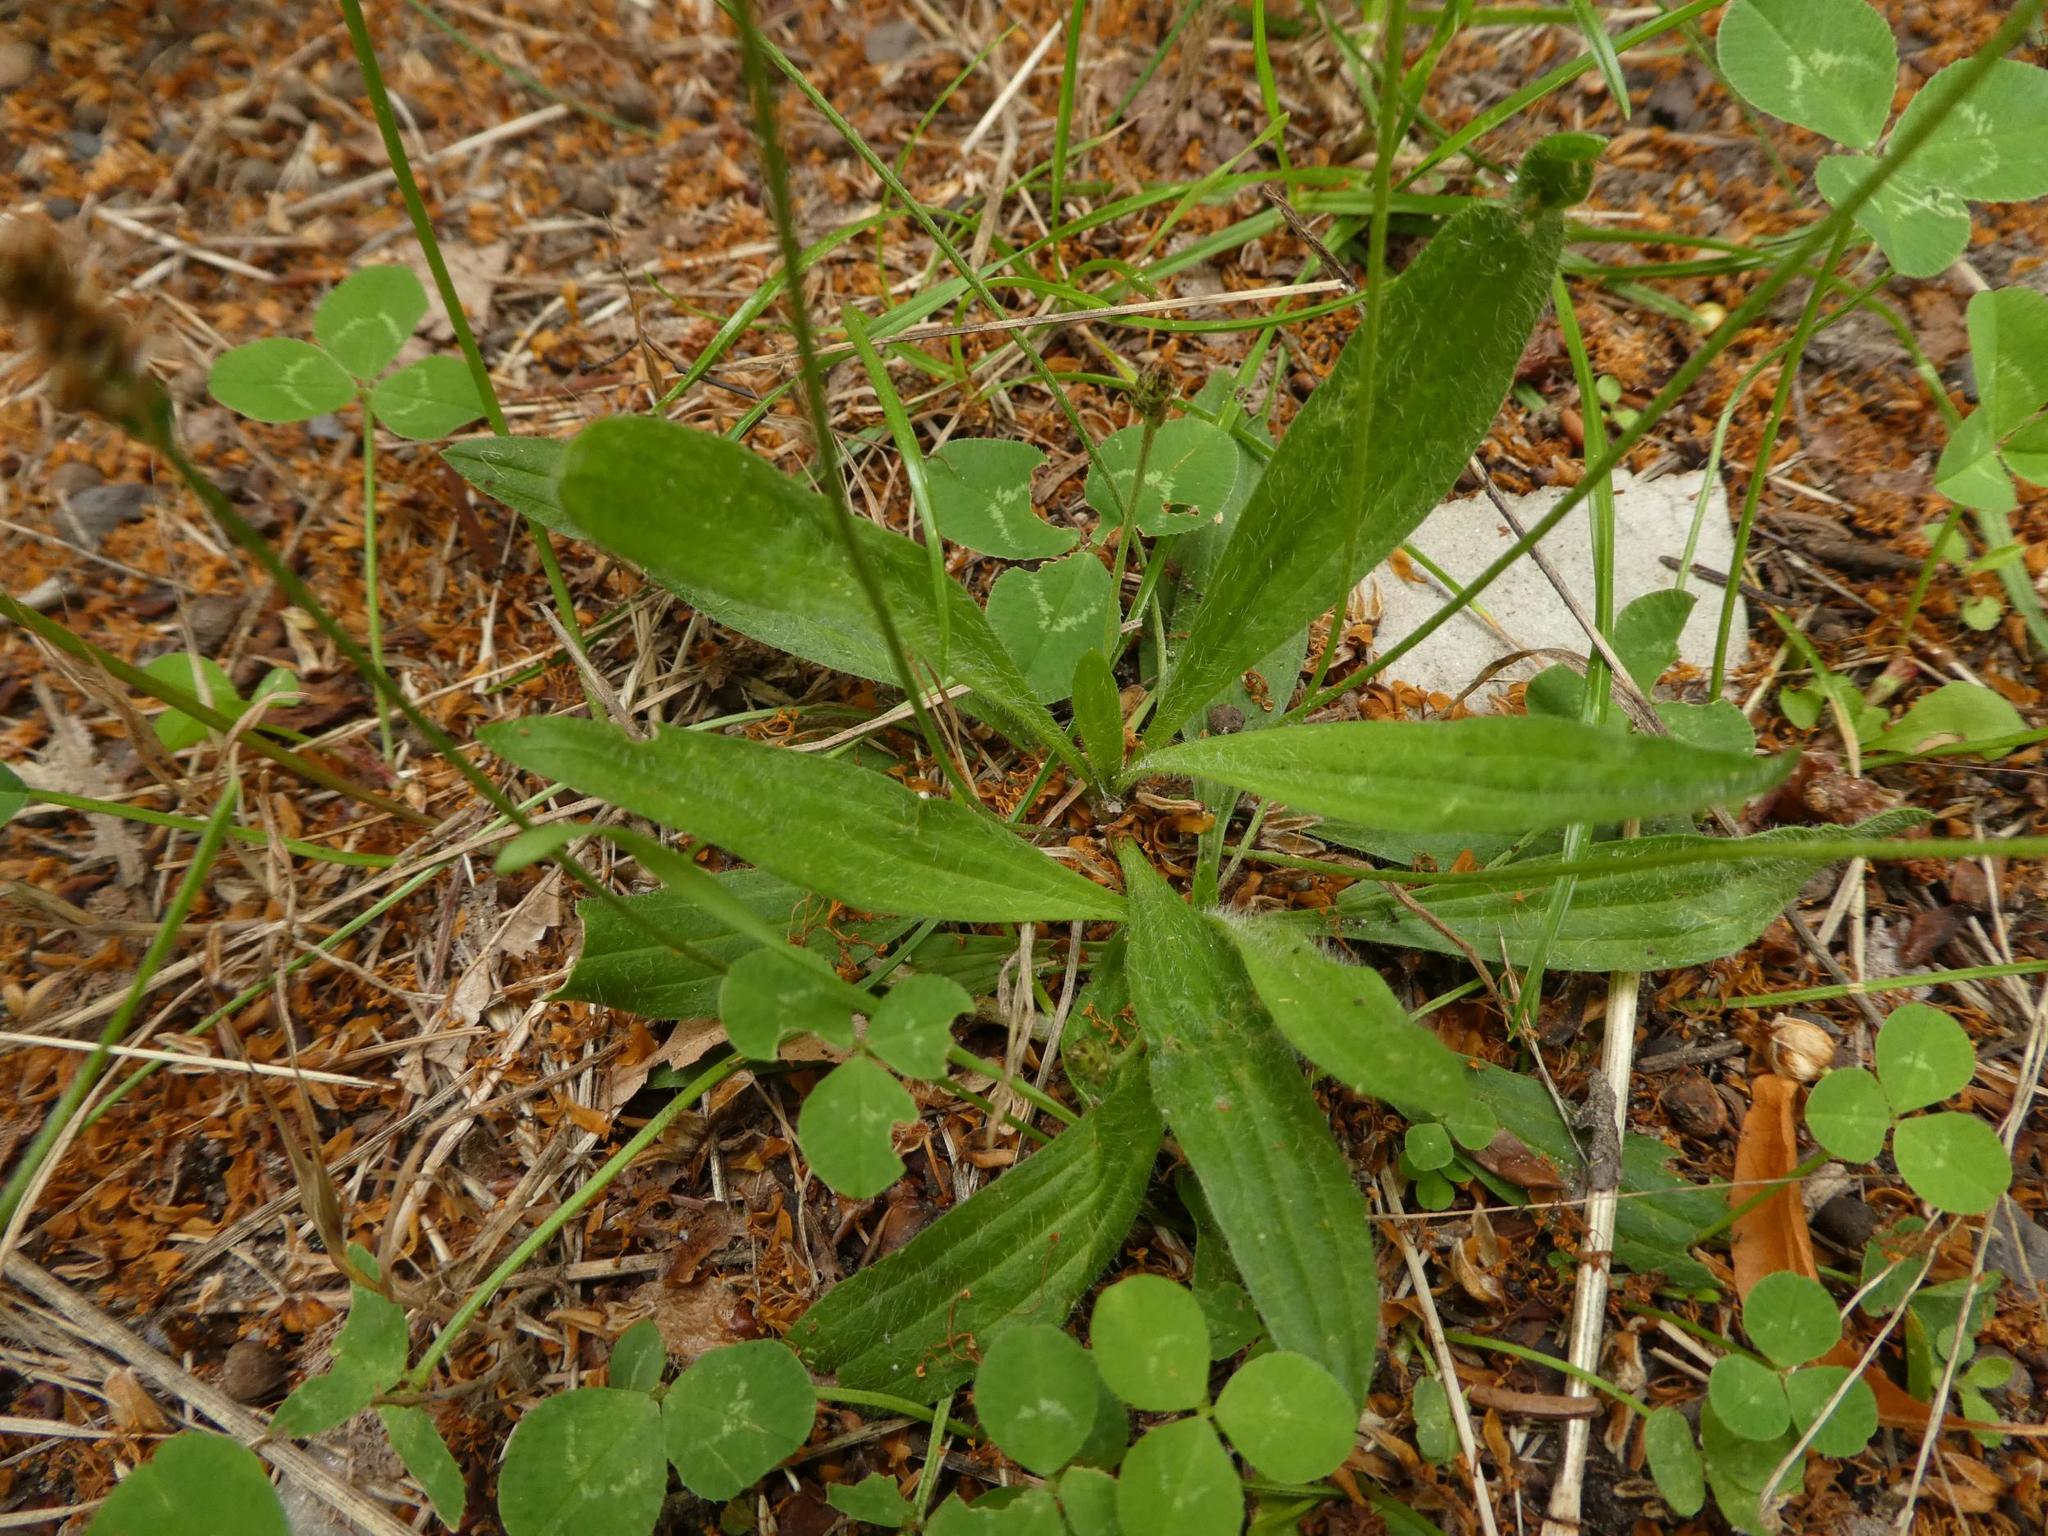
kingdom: Plantae
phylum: Tracheophyta
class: Magnoliopsida
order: Lamiales
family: Plantaginaceae
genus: Plantago
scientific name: Plantago lanceolata
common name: Ribwort plantain
